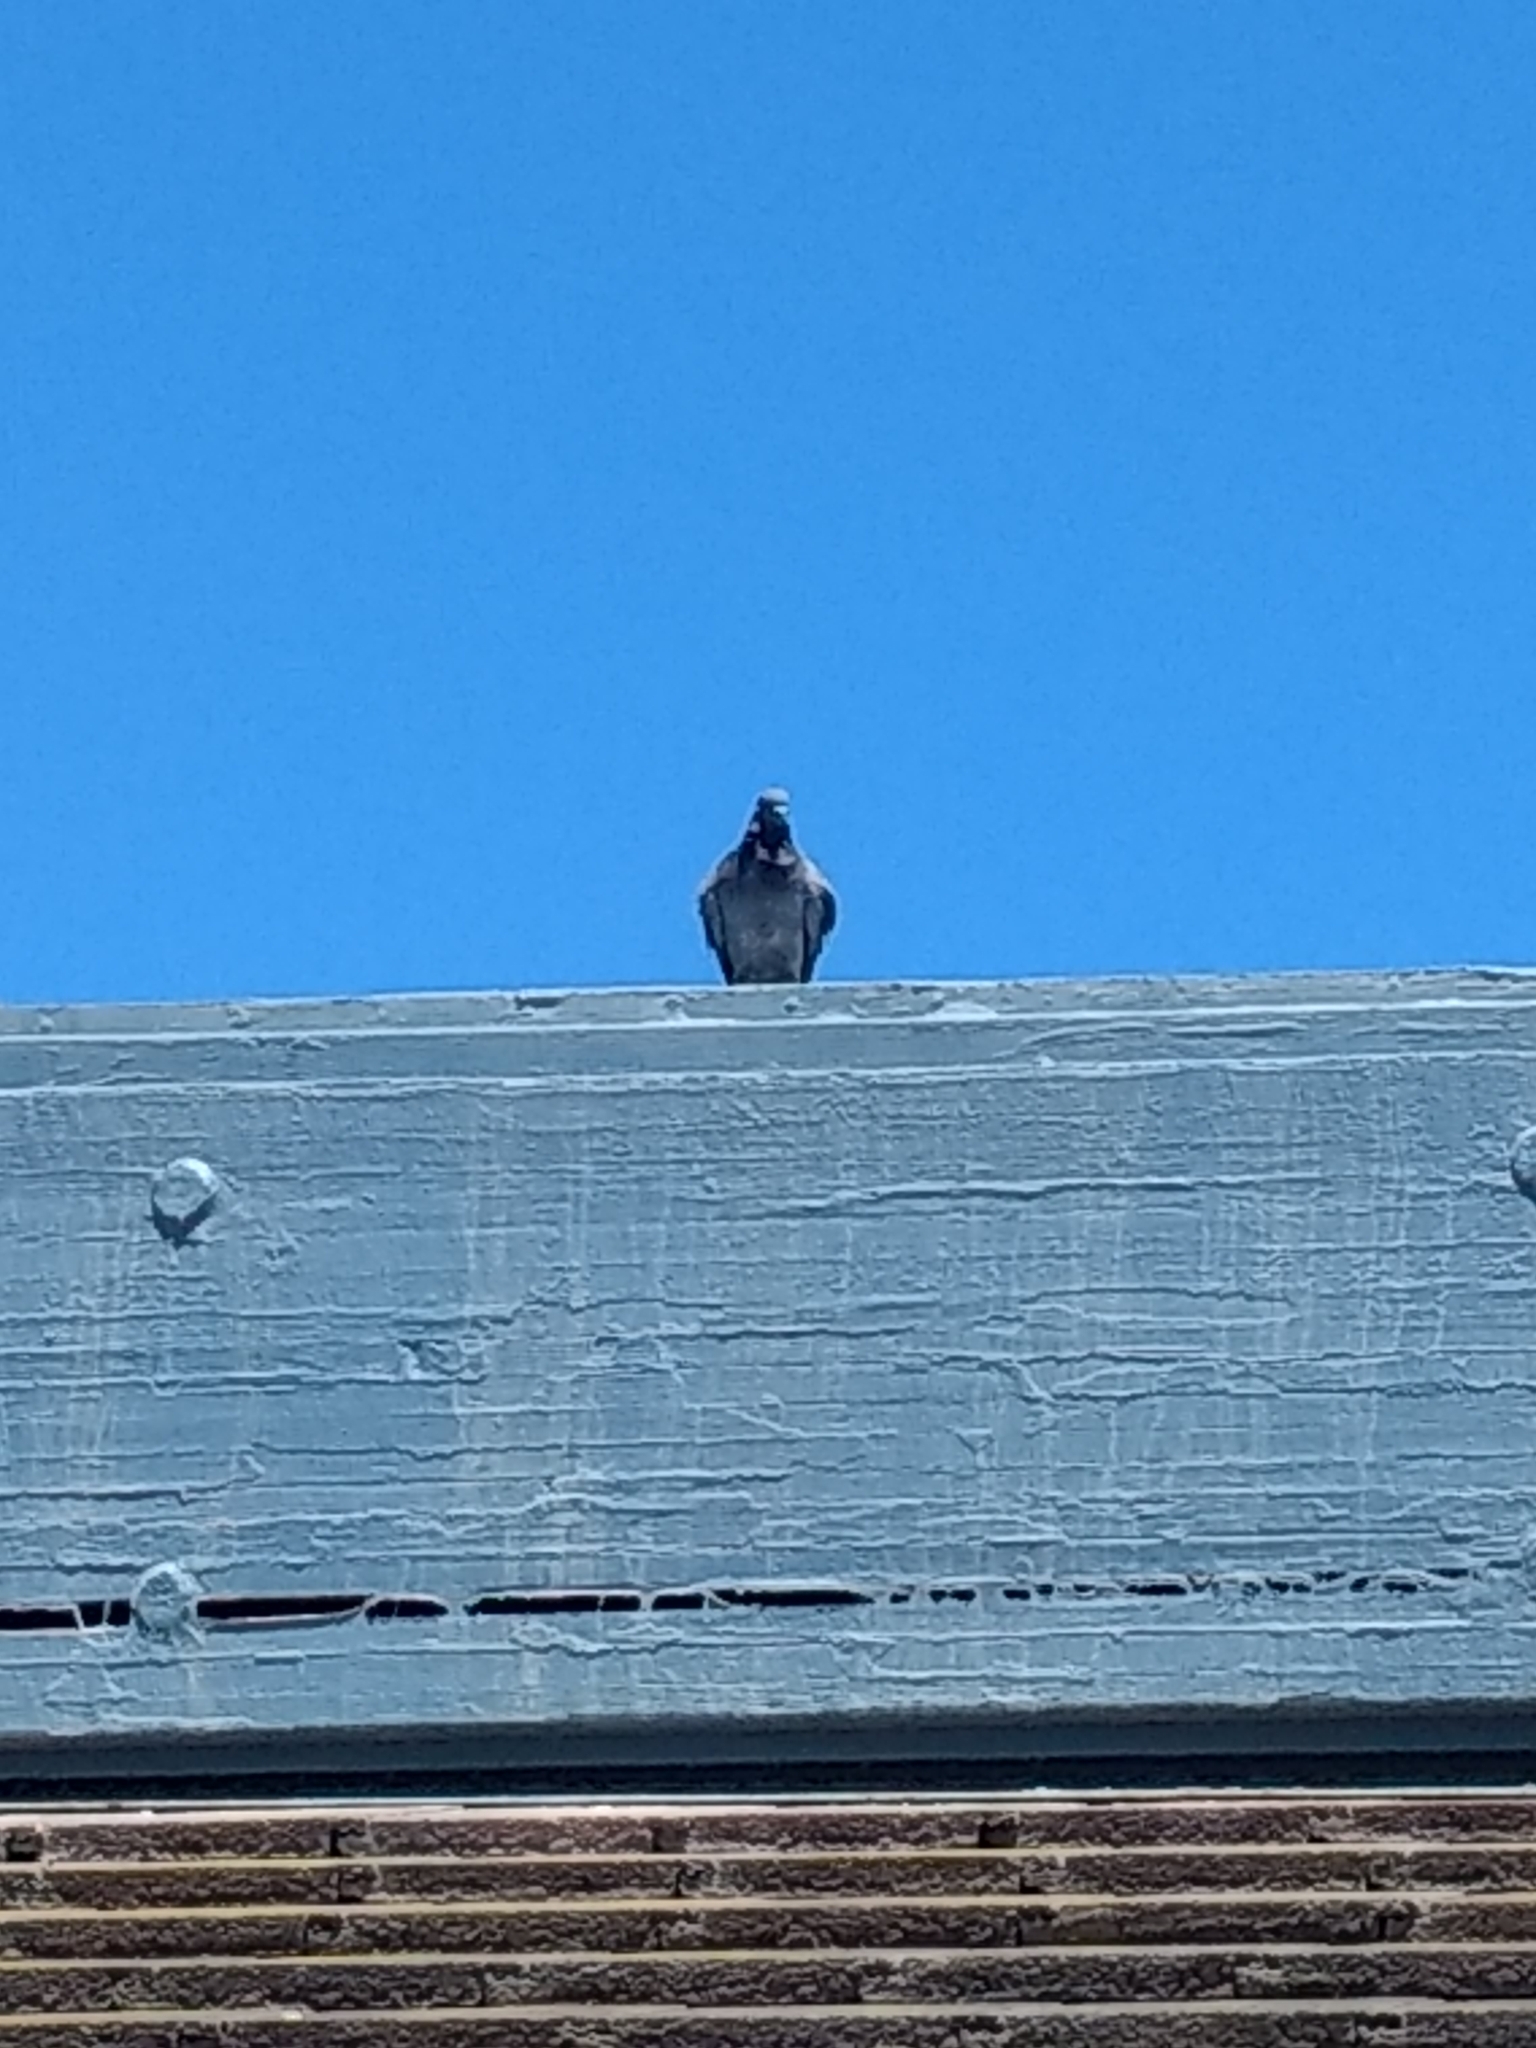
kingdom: Animalia
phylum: Chordata
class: Aves
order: Columbiformes
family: Columbidae
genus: Columba
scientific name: Columba livia
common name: Rock pigeon
